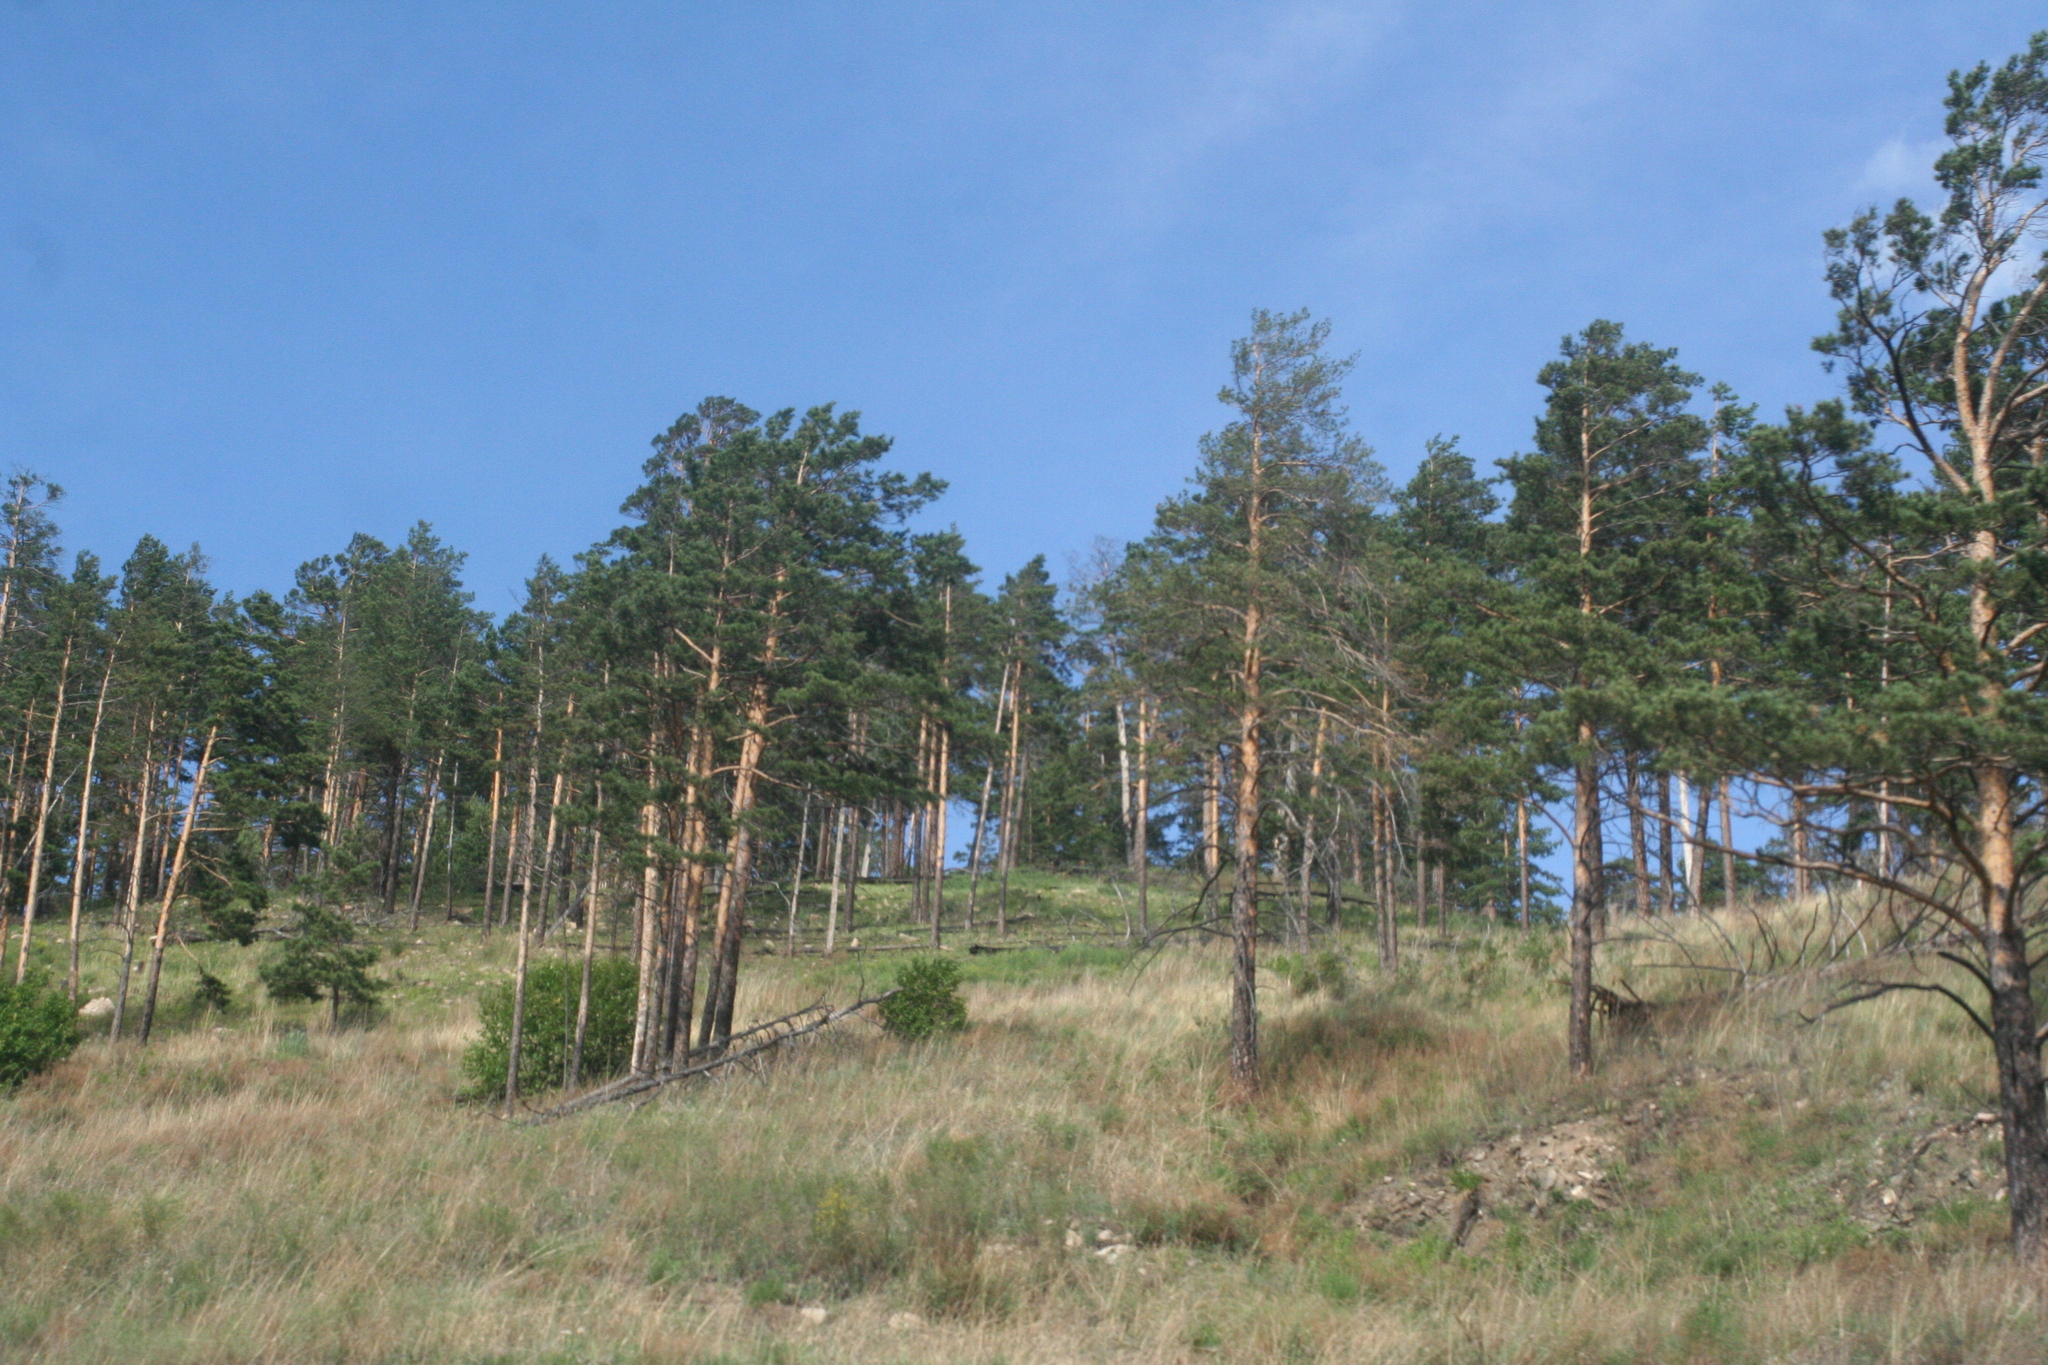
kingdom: Plantae
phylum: Tracheophyta
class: Pinopsida
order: Pinales
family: Pinaceae
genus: Pinus
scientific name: Pinus sylvestris
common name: Scots pine
